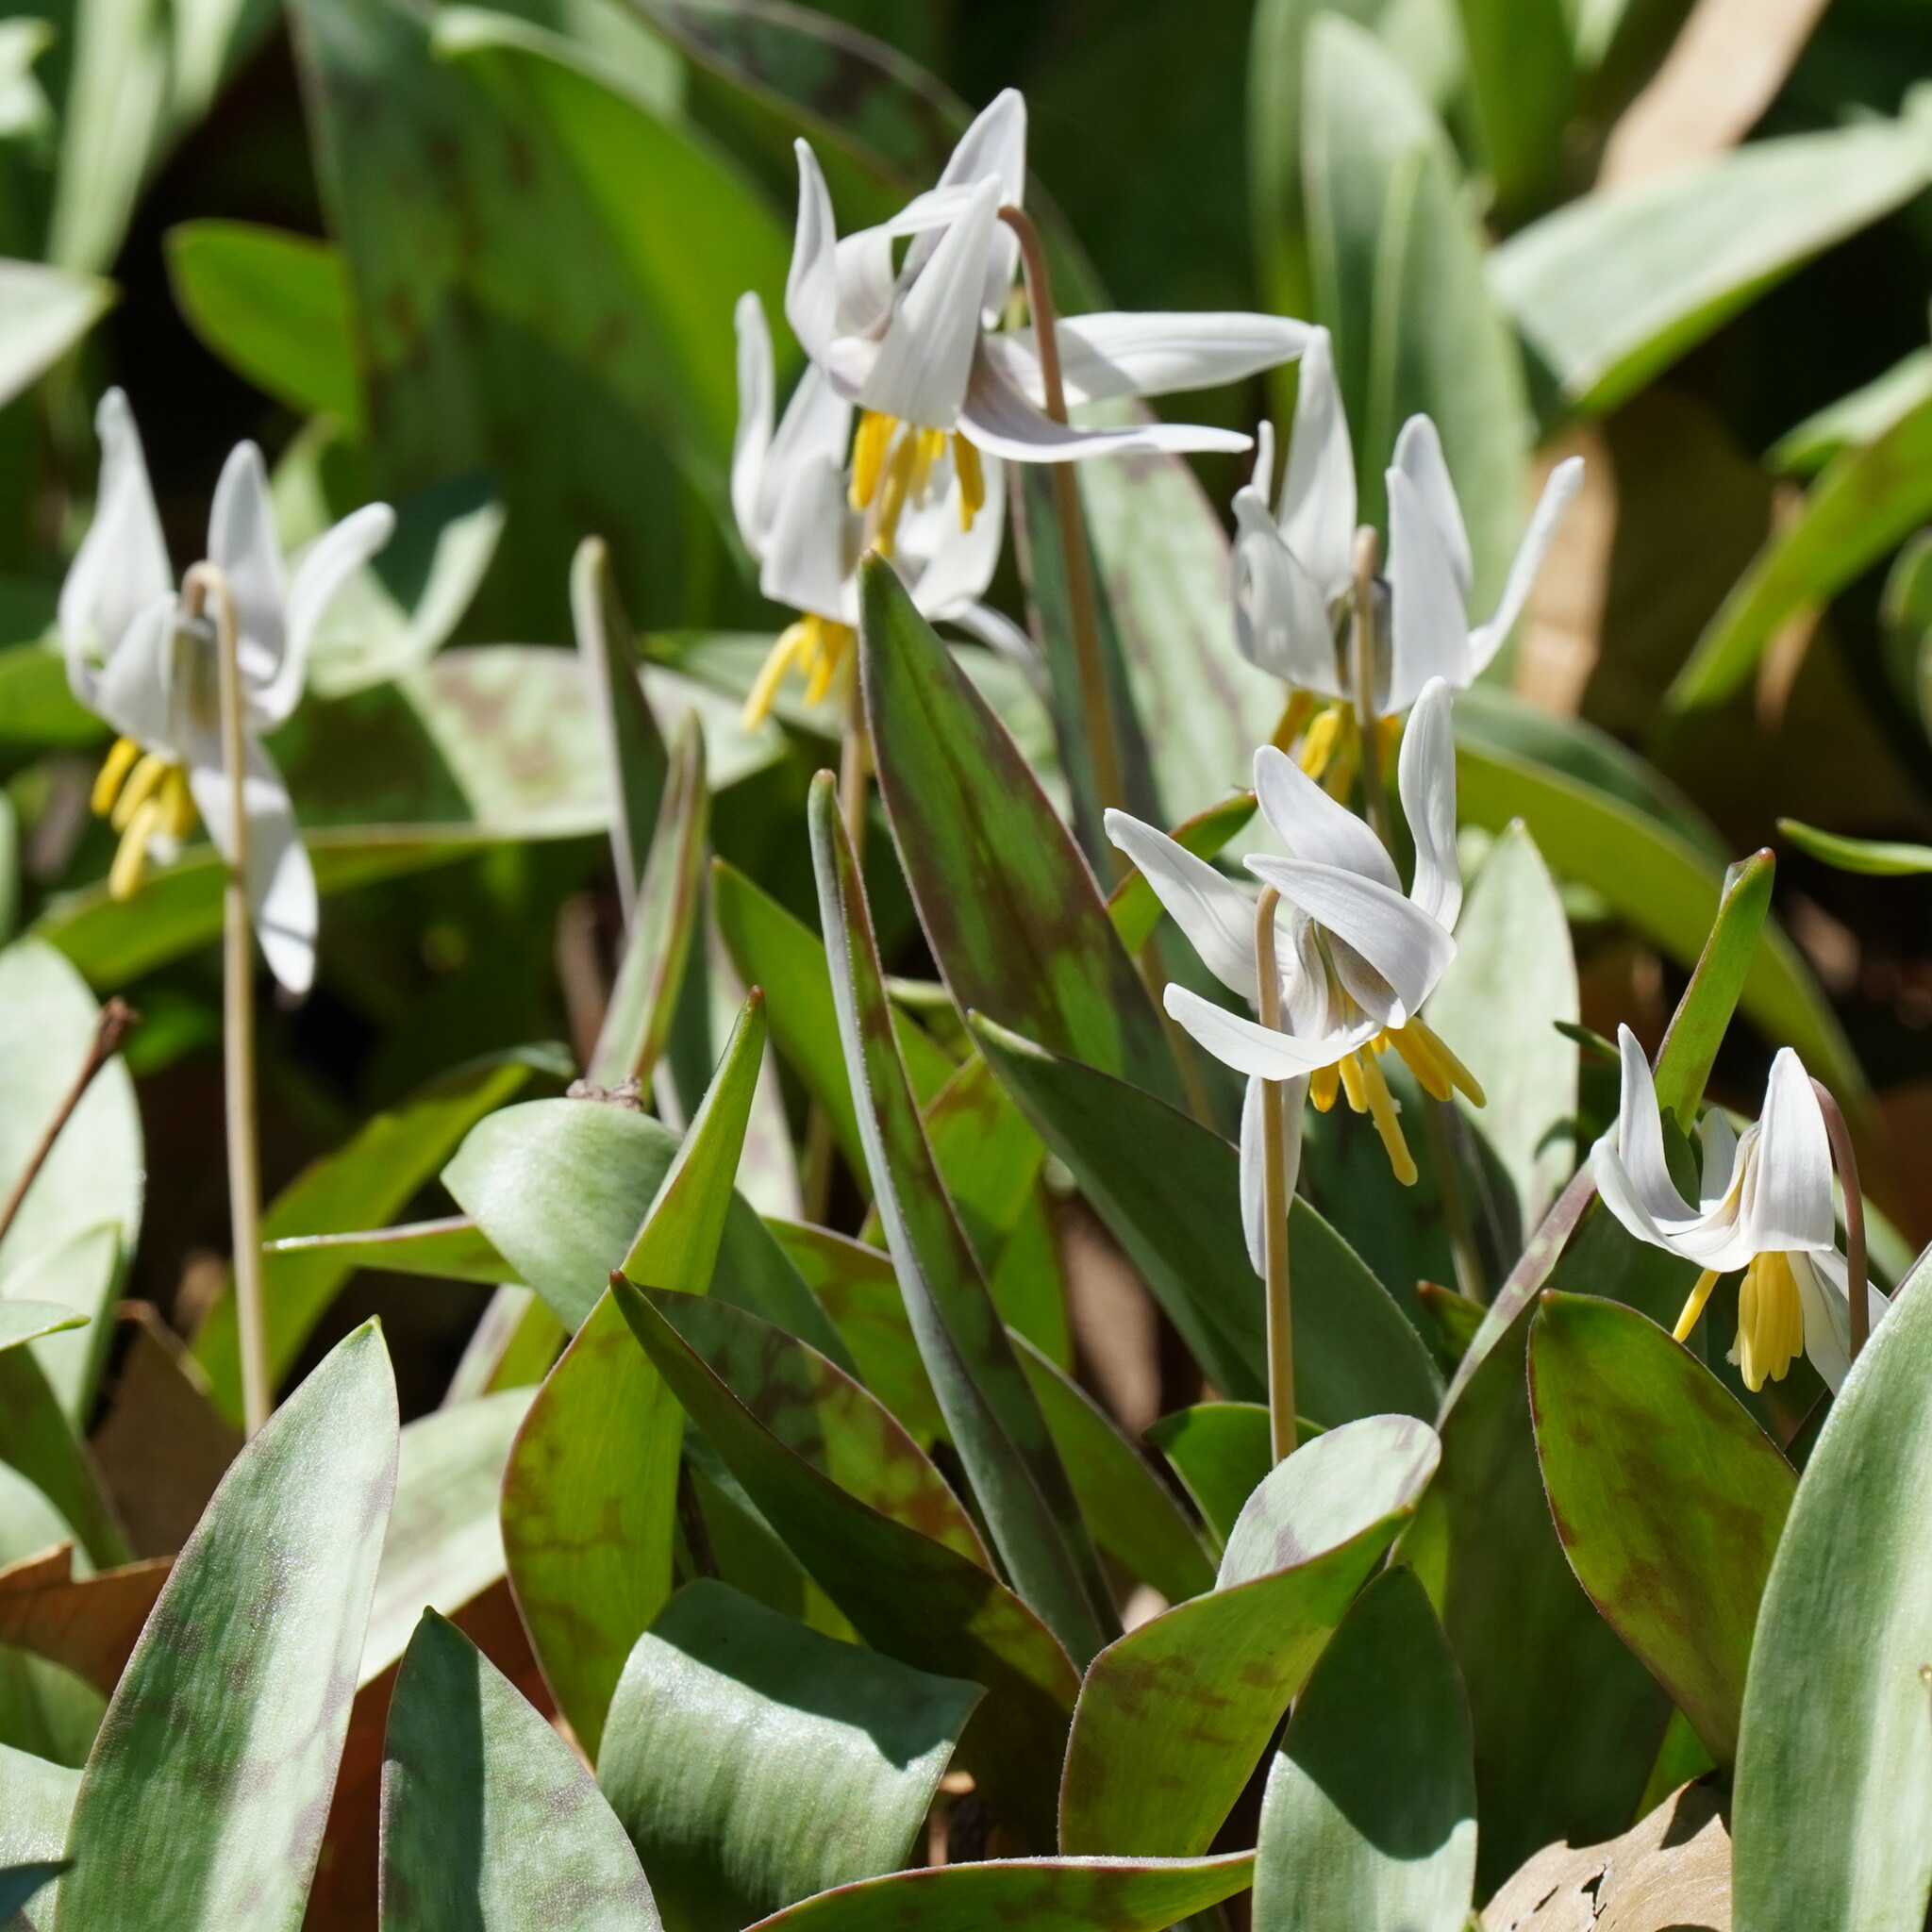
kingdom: Plantae
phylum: Tracheophyta
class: Liliopsida
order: Liliales
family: Liliaceae
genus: Erythronium
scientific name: Erythronium albidum
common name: White trout-lily
